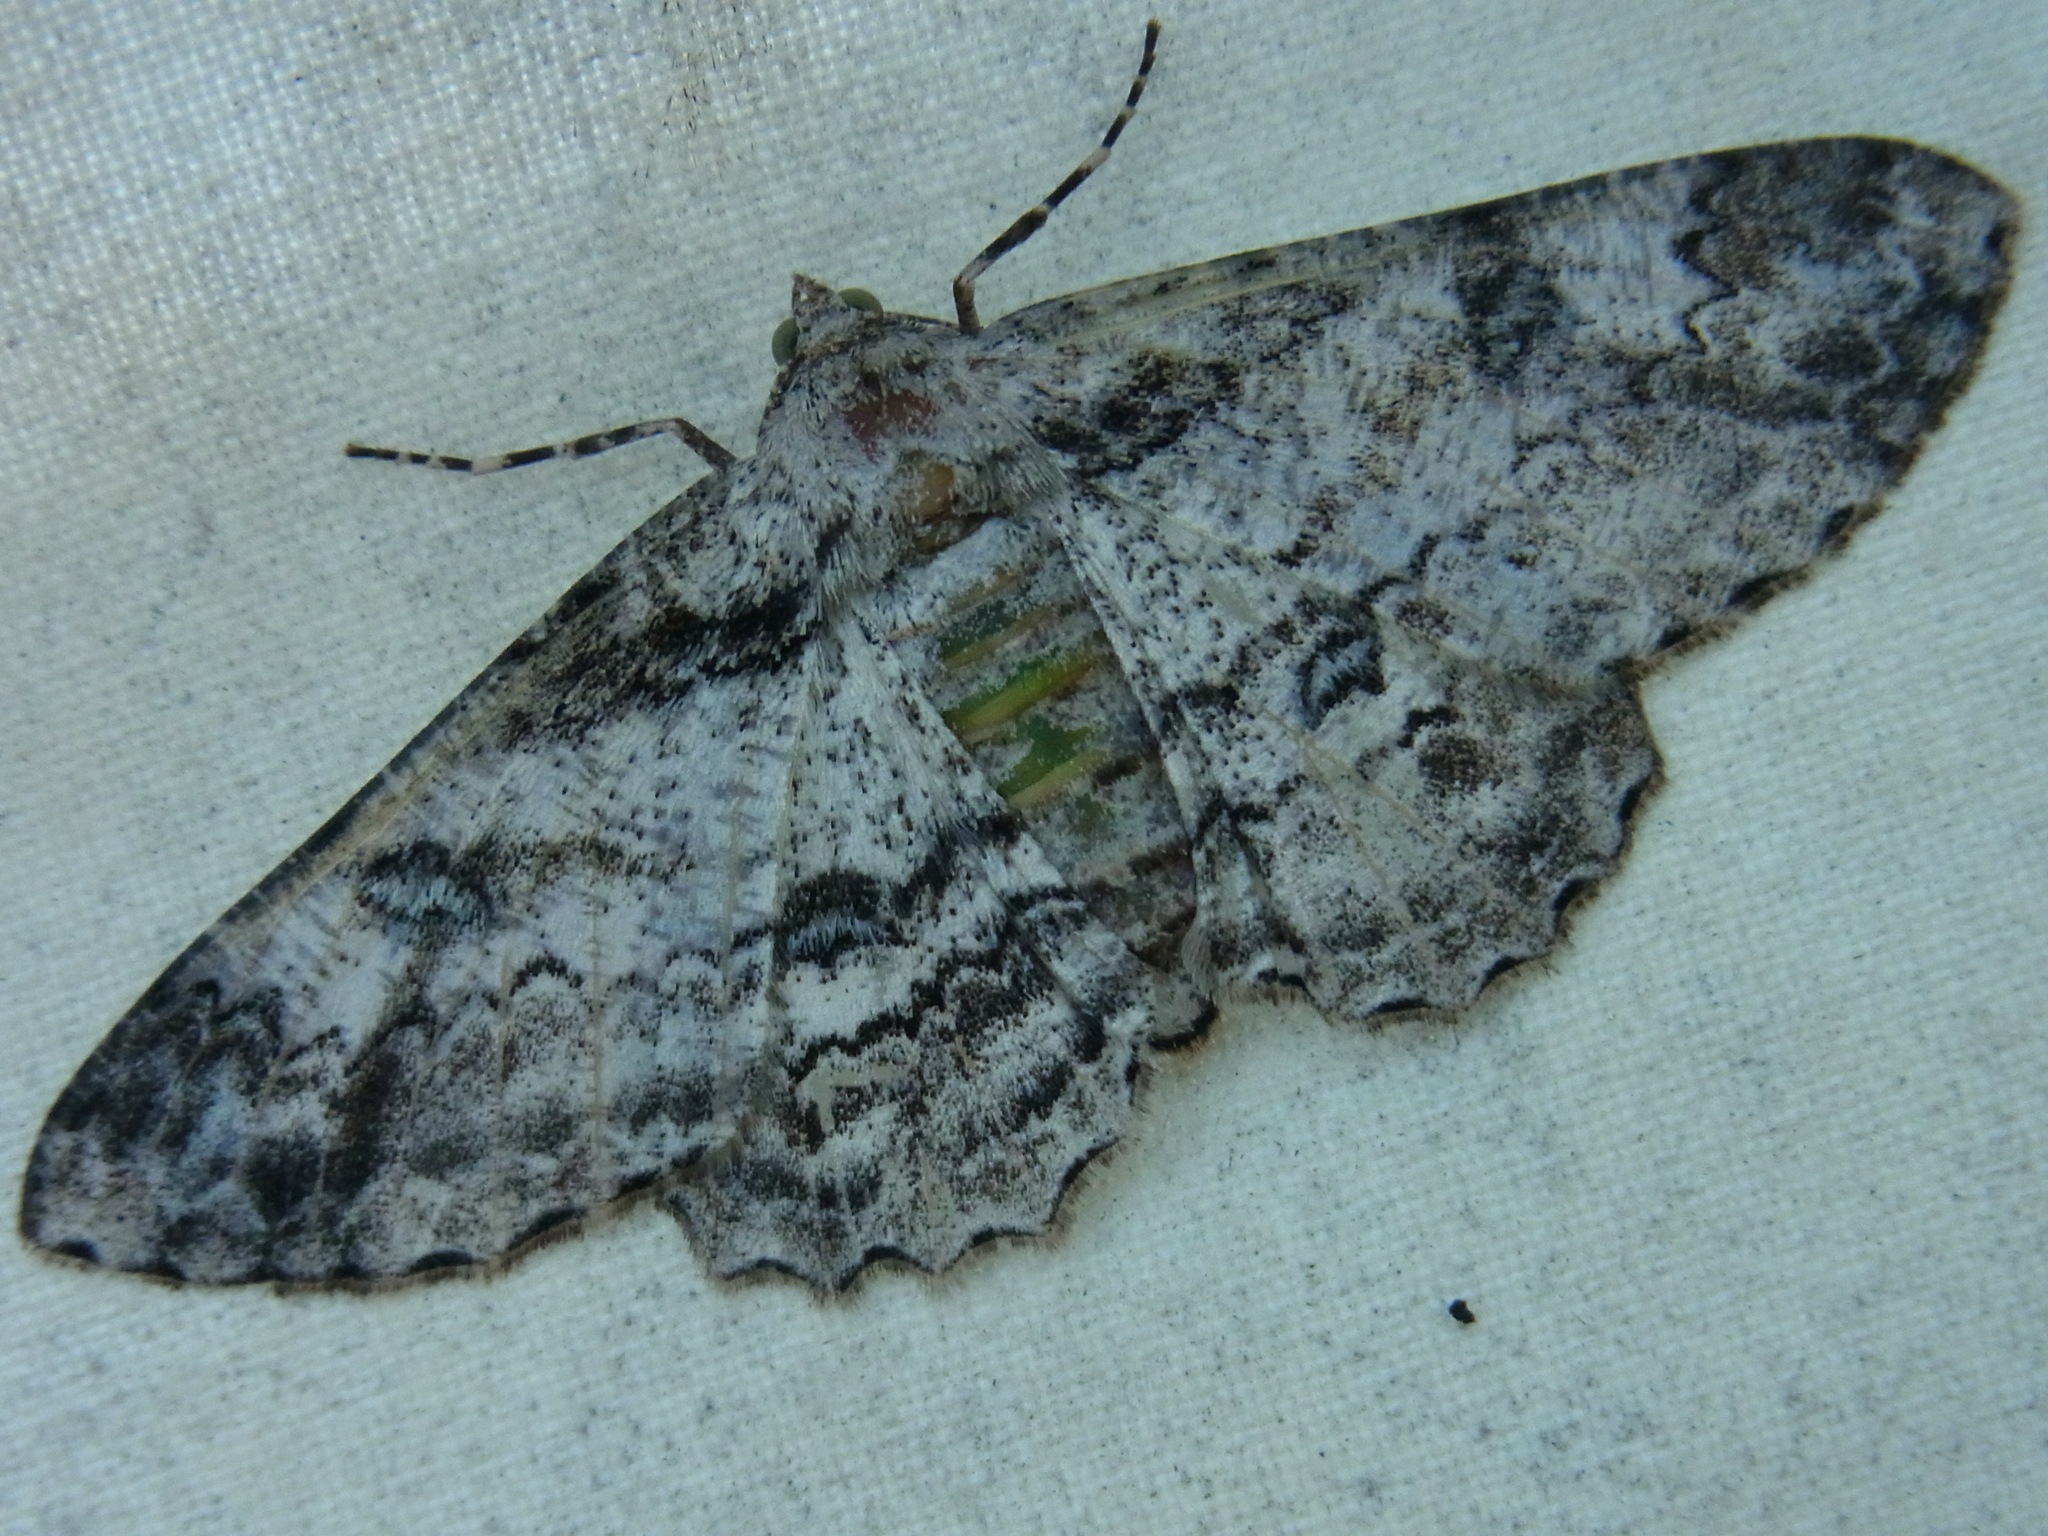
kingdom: Animalia
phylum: Arthropoda
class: Insecta
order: Lepidoptera
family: Geometridae
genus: Ascotis
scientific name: Ascotis selenaria
